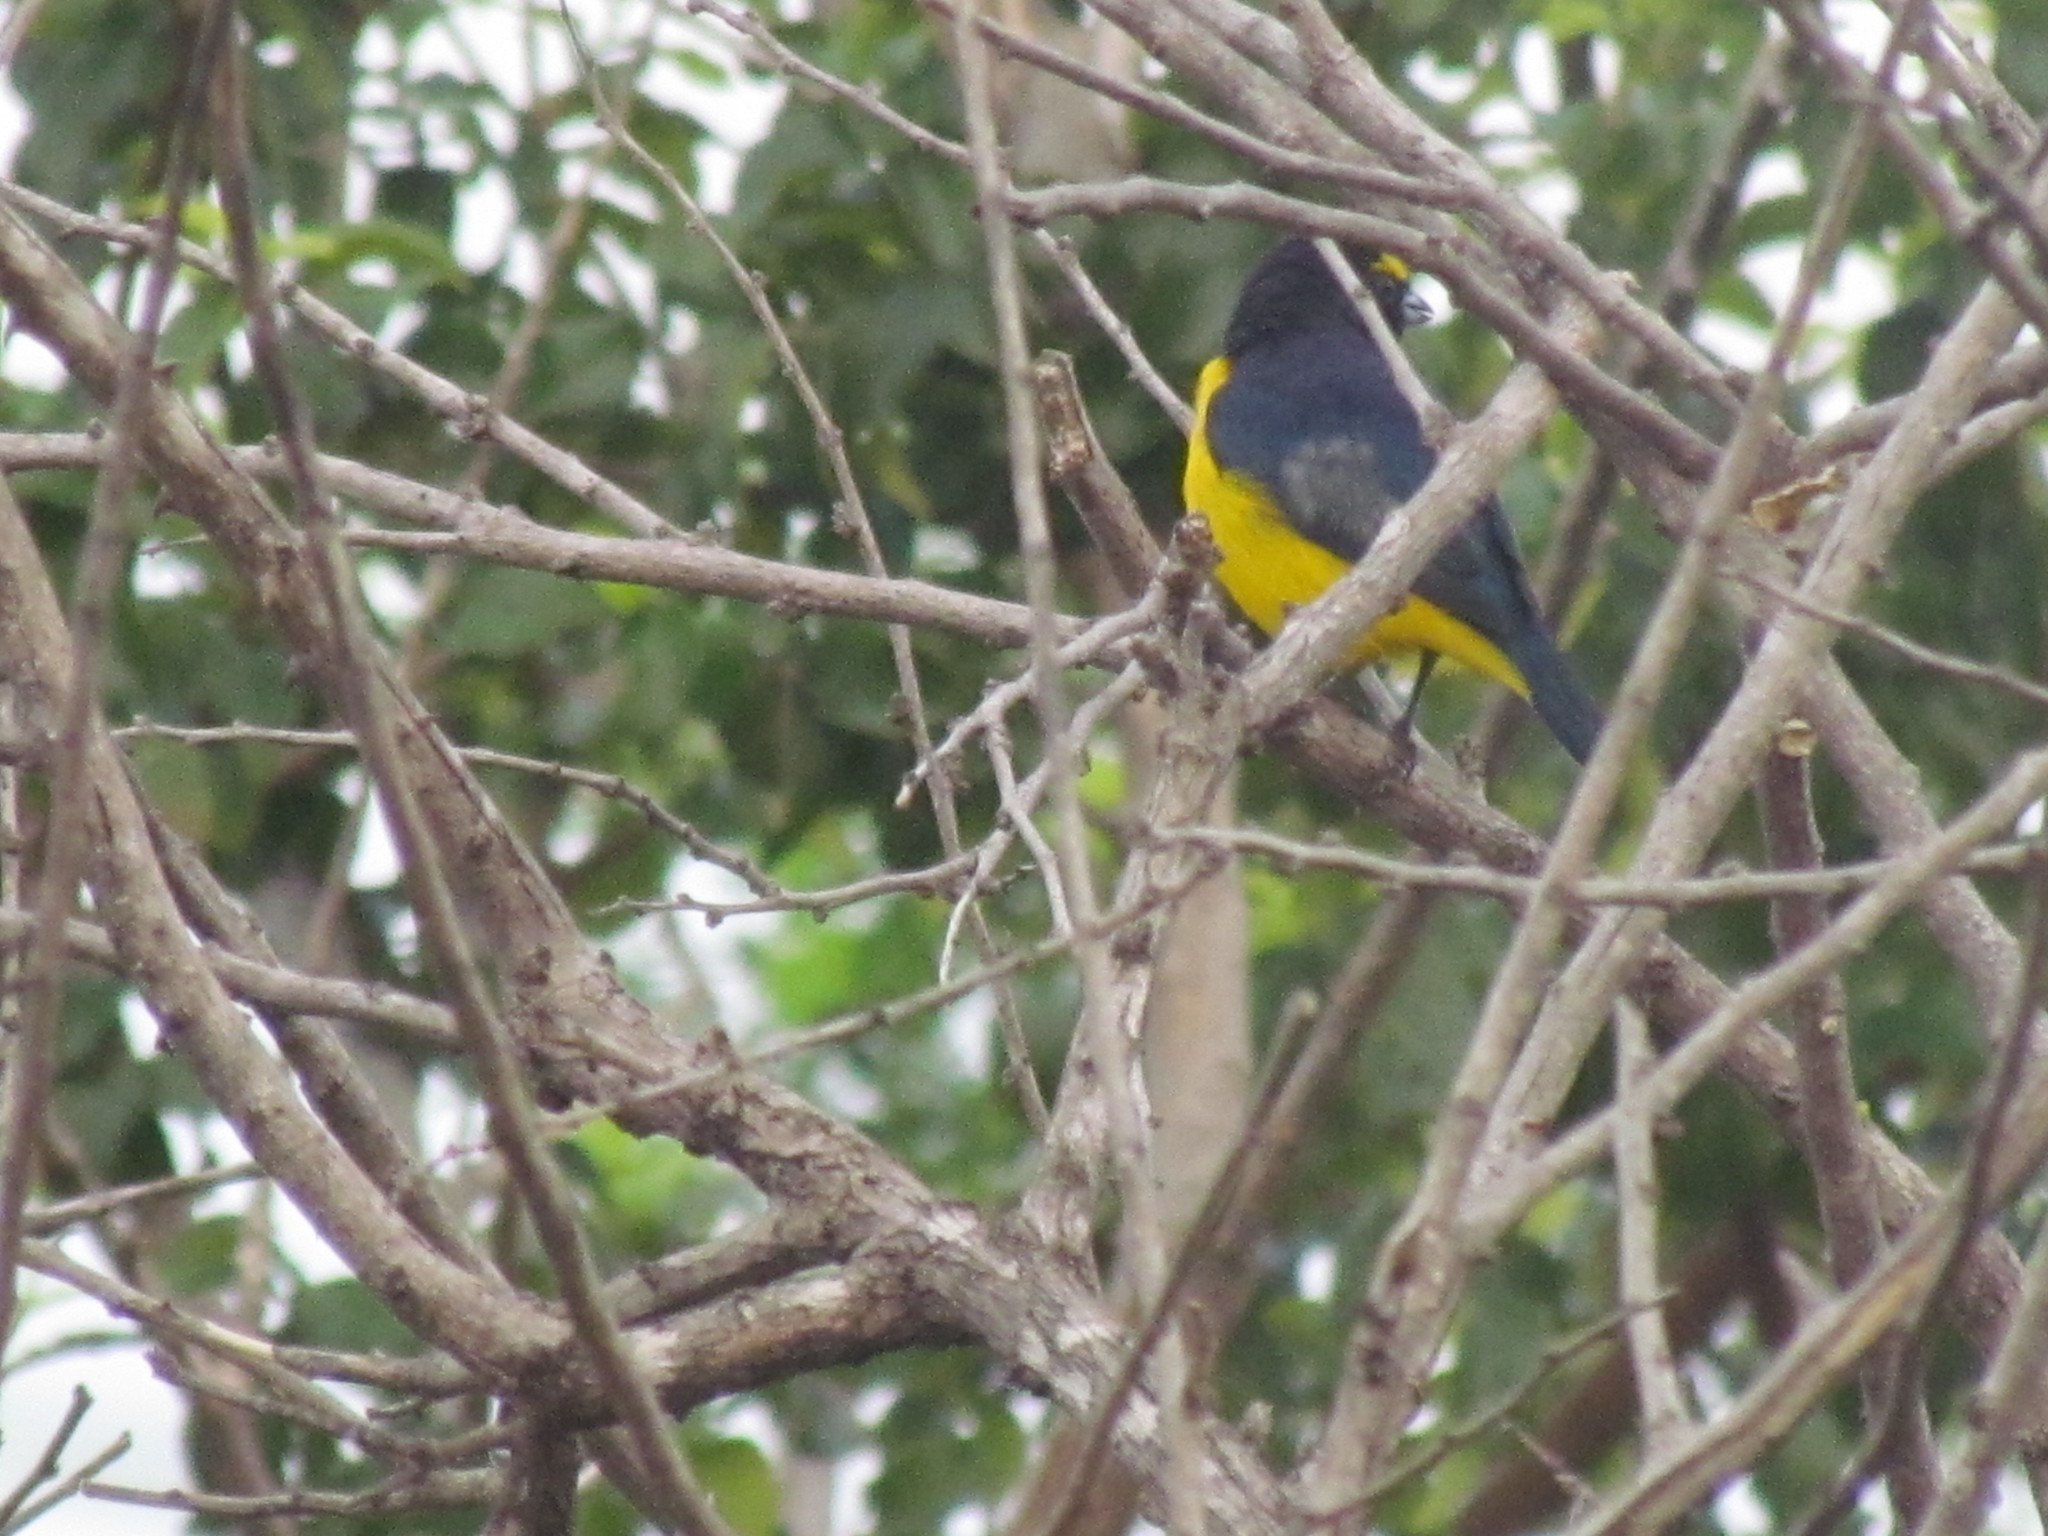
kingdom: Animalia
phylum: Chordata
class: Aves
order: Passeriformes
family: Fringillidae
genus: Euphonia
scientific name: Euphonia affinis
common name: Scrub euphonia
